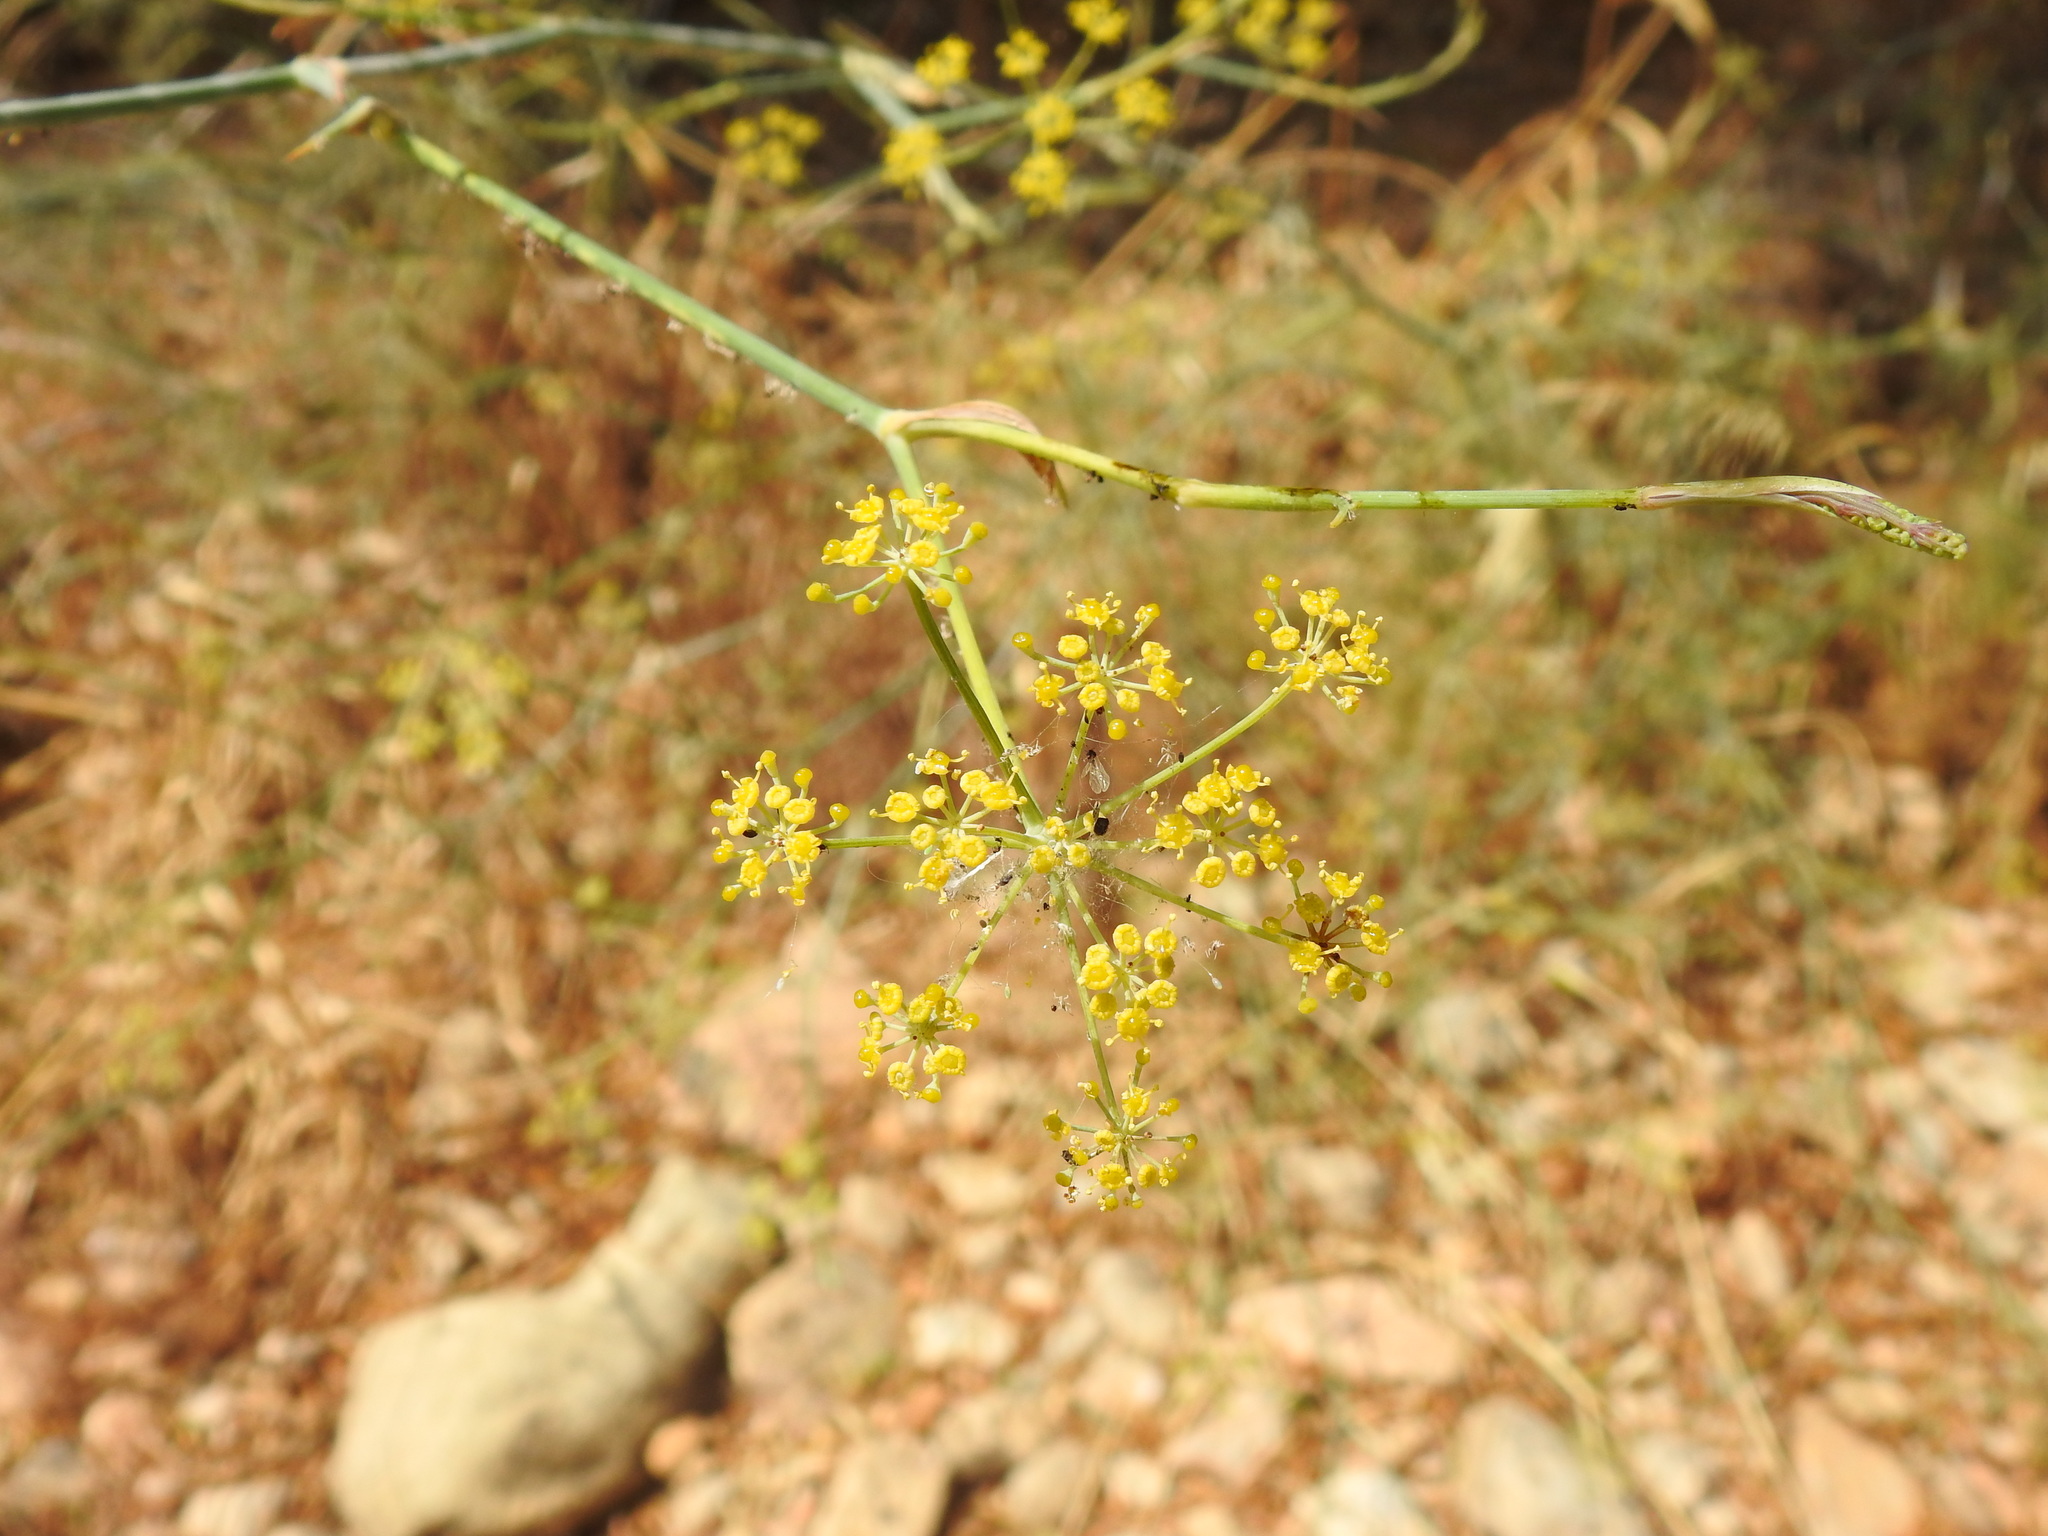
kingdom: Plantae
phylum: Tracheophyta
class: Magnoliopsida
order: Apiales
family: Apiaceae
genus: Foeniculum
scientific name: Foeniculum vulgare
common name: Fennel
